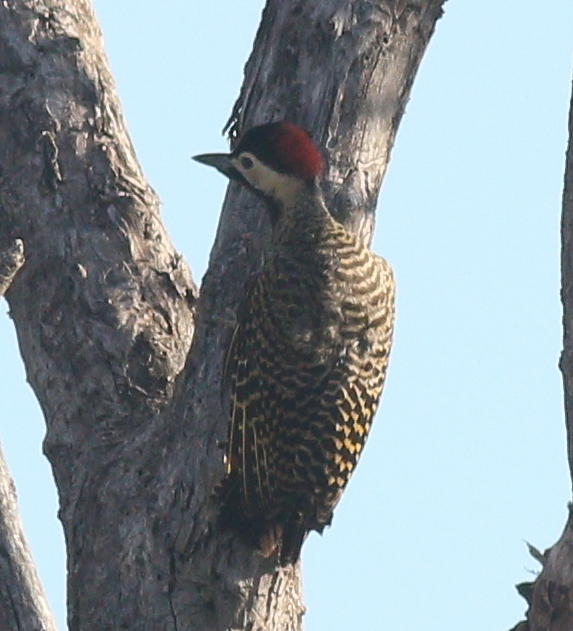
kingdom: Animalia
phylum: Chordata
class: Aves
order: Piciformes
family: Picidae
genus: Colaptes
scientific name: Colaptes melanochloros
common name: Green-barred woodpecker
